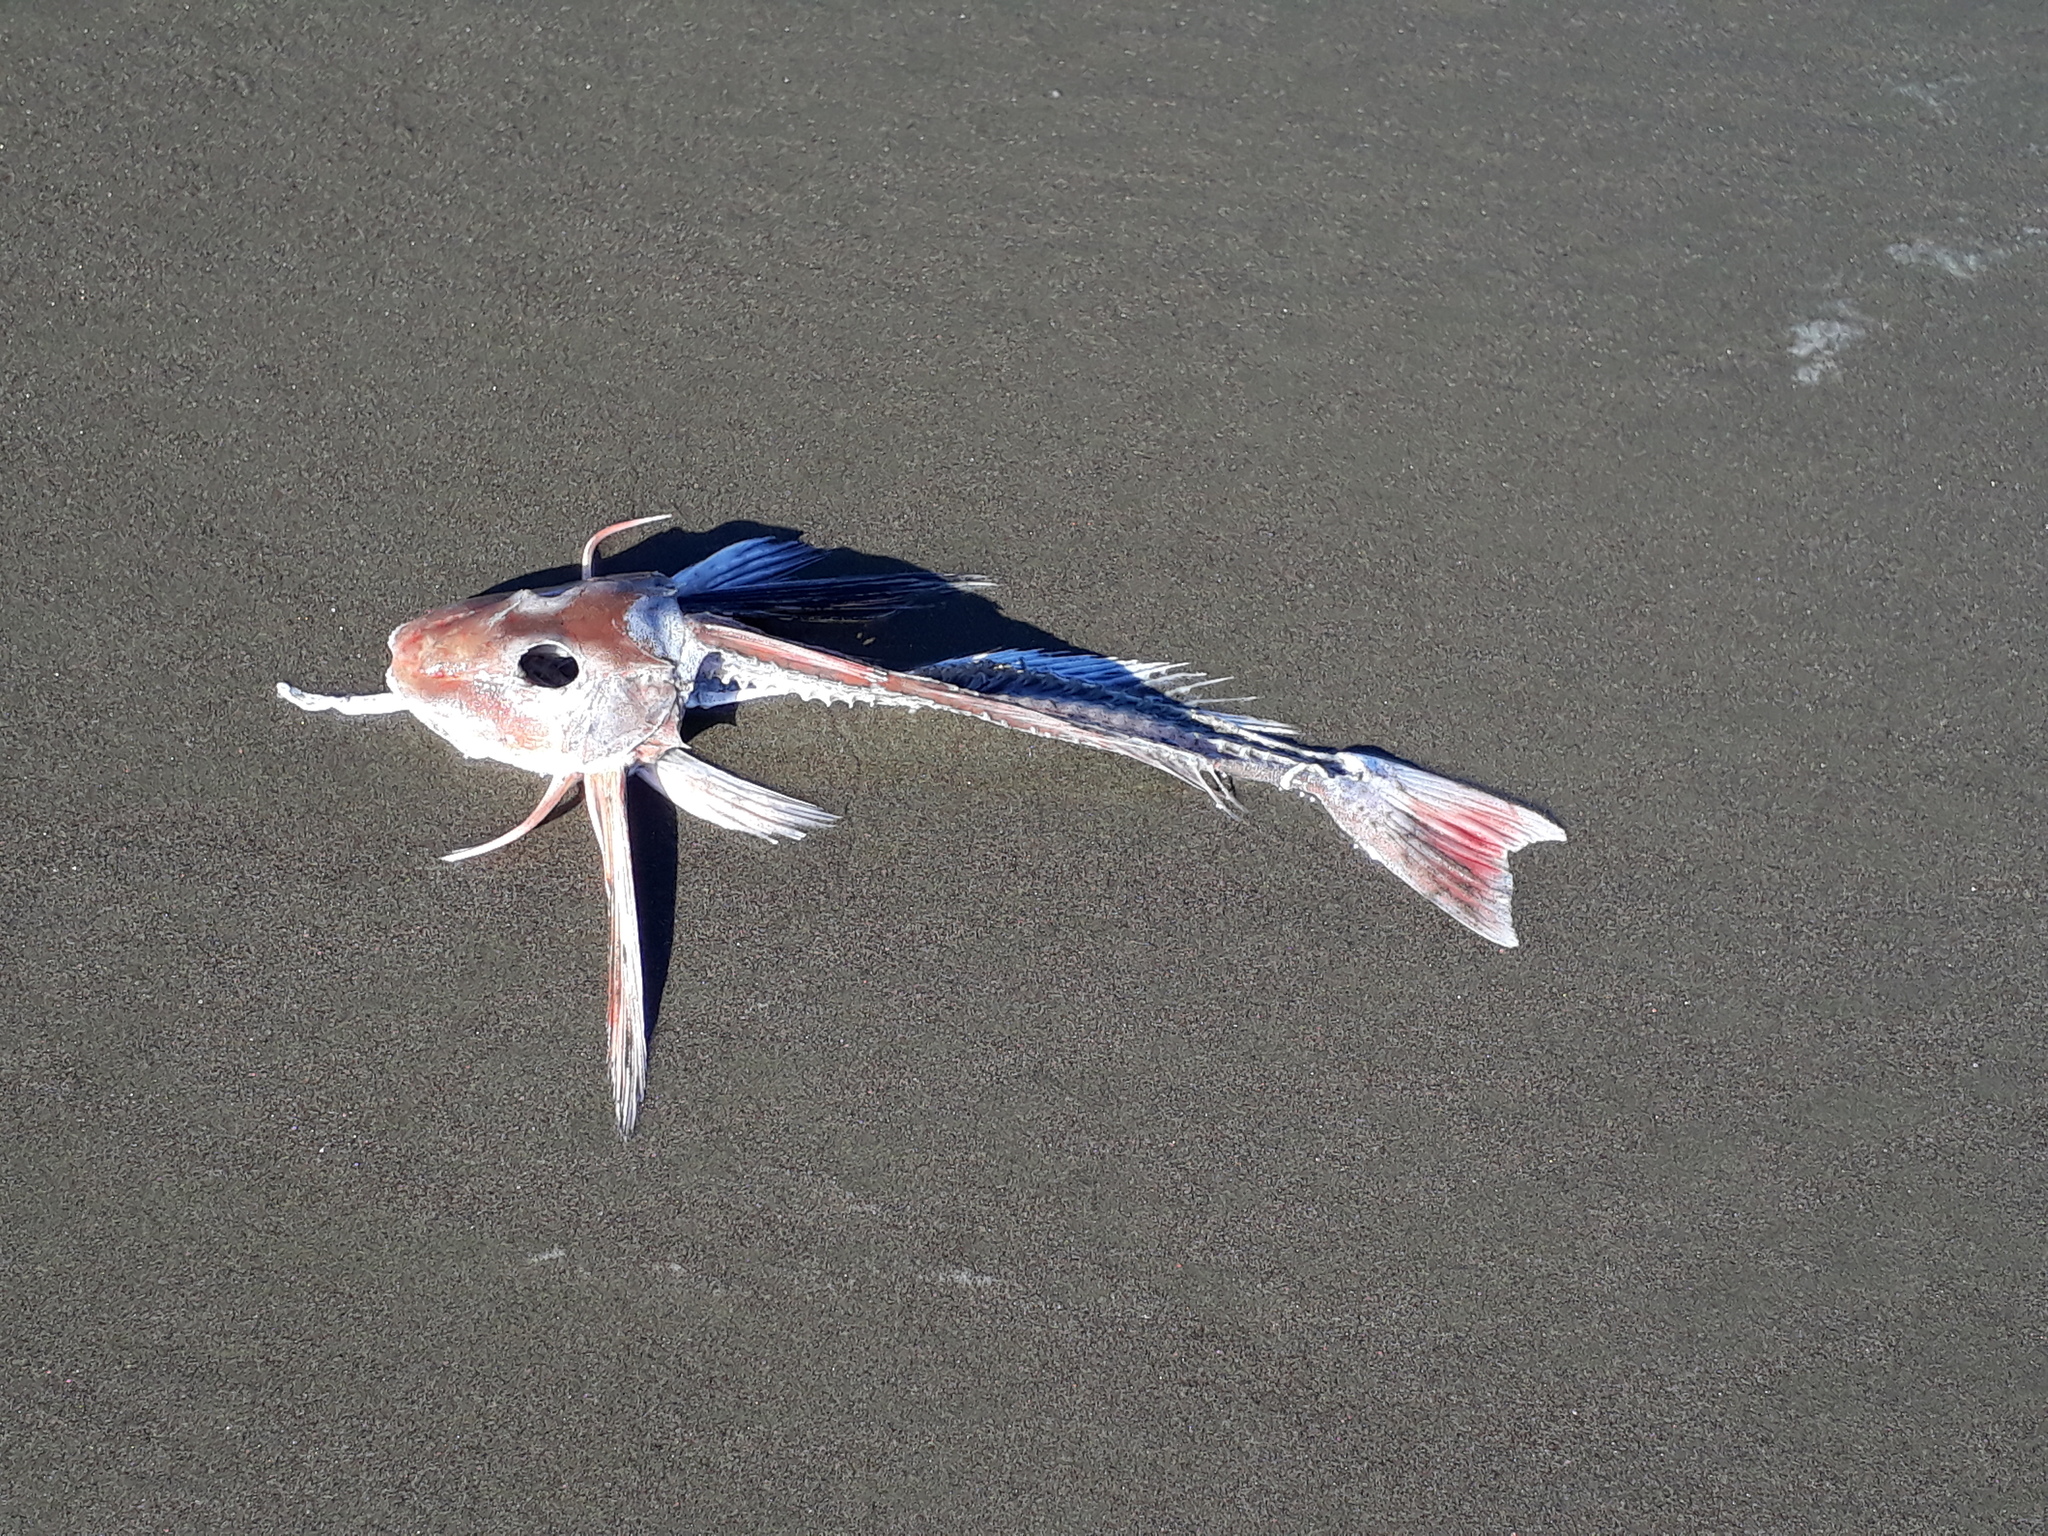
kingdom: Animalia
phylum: Chordata
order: Scorpaeniformes
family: Triglidae
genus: Chelidonichthys
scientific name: Chelidonichthys kumu
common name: Bluefin gurnard
